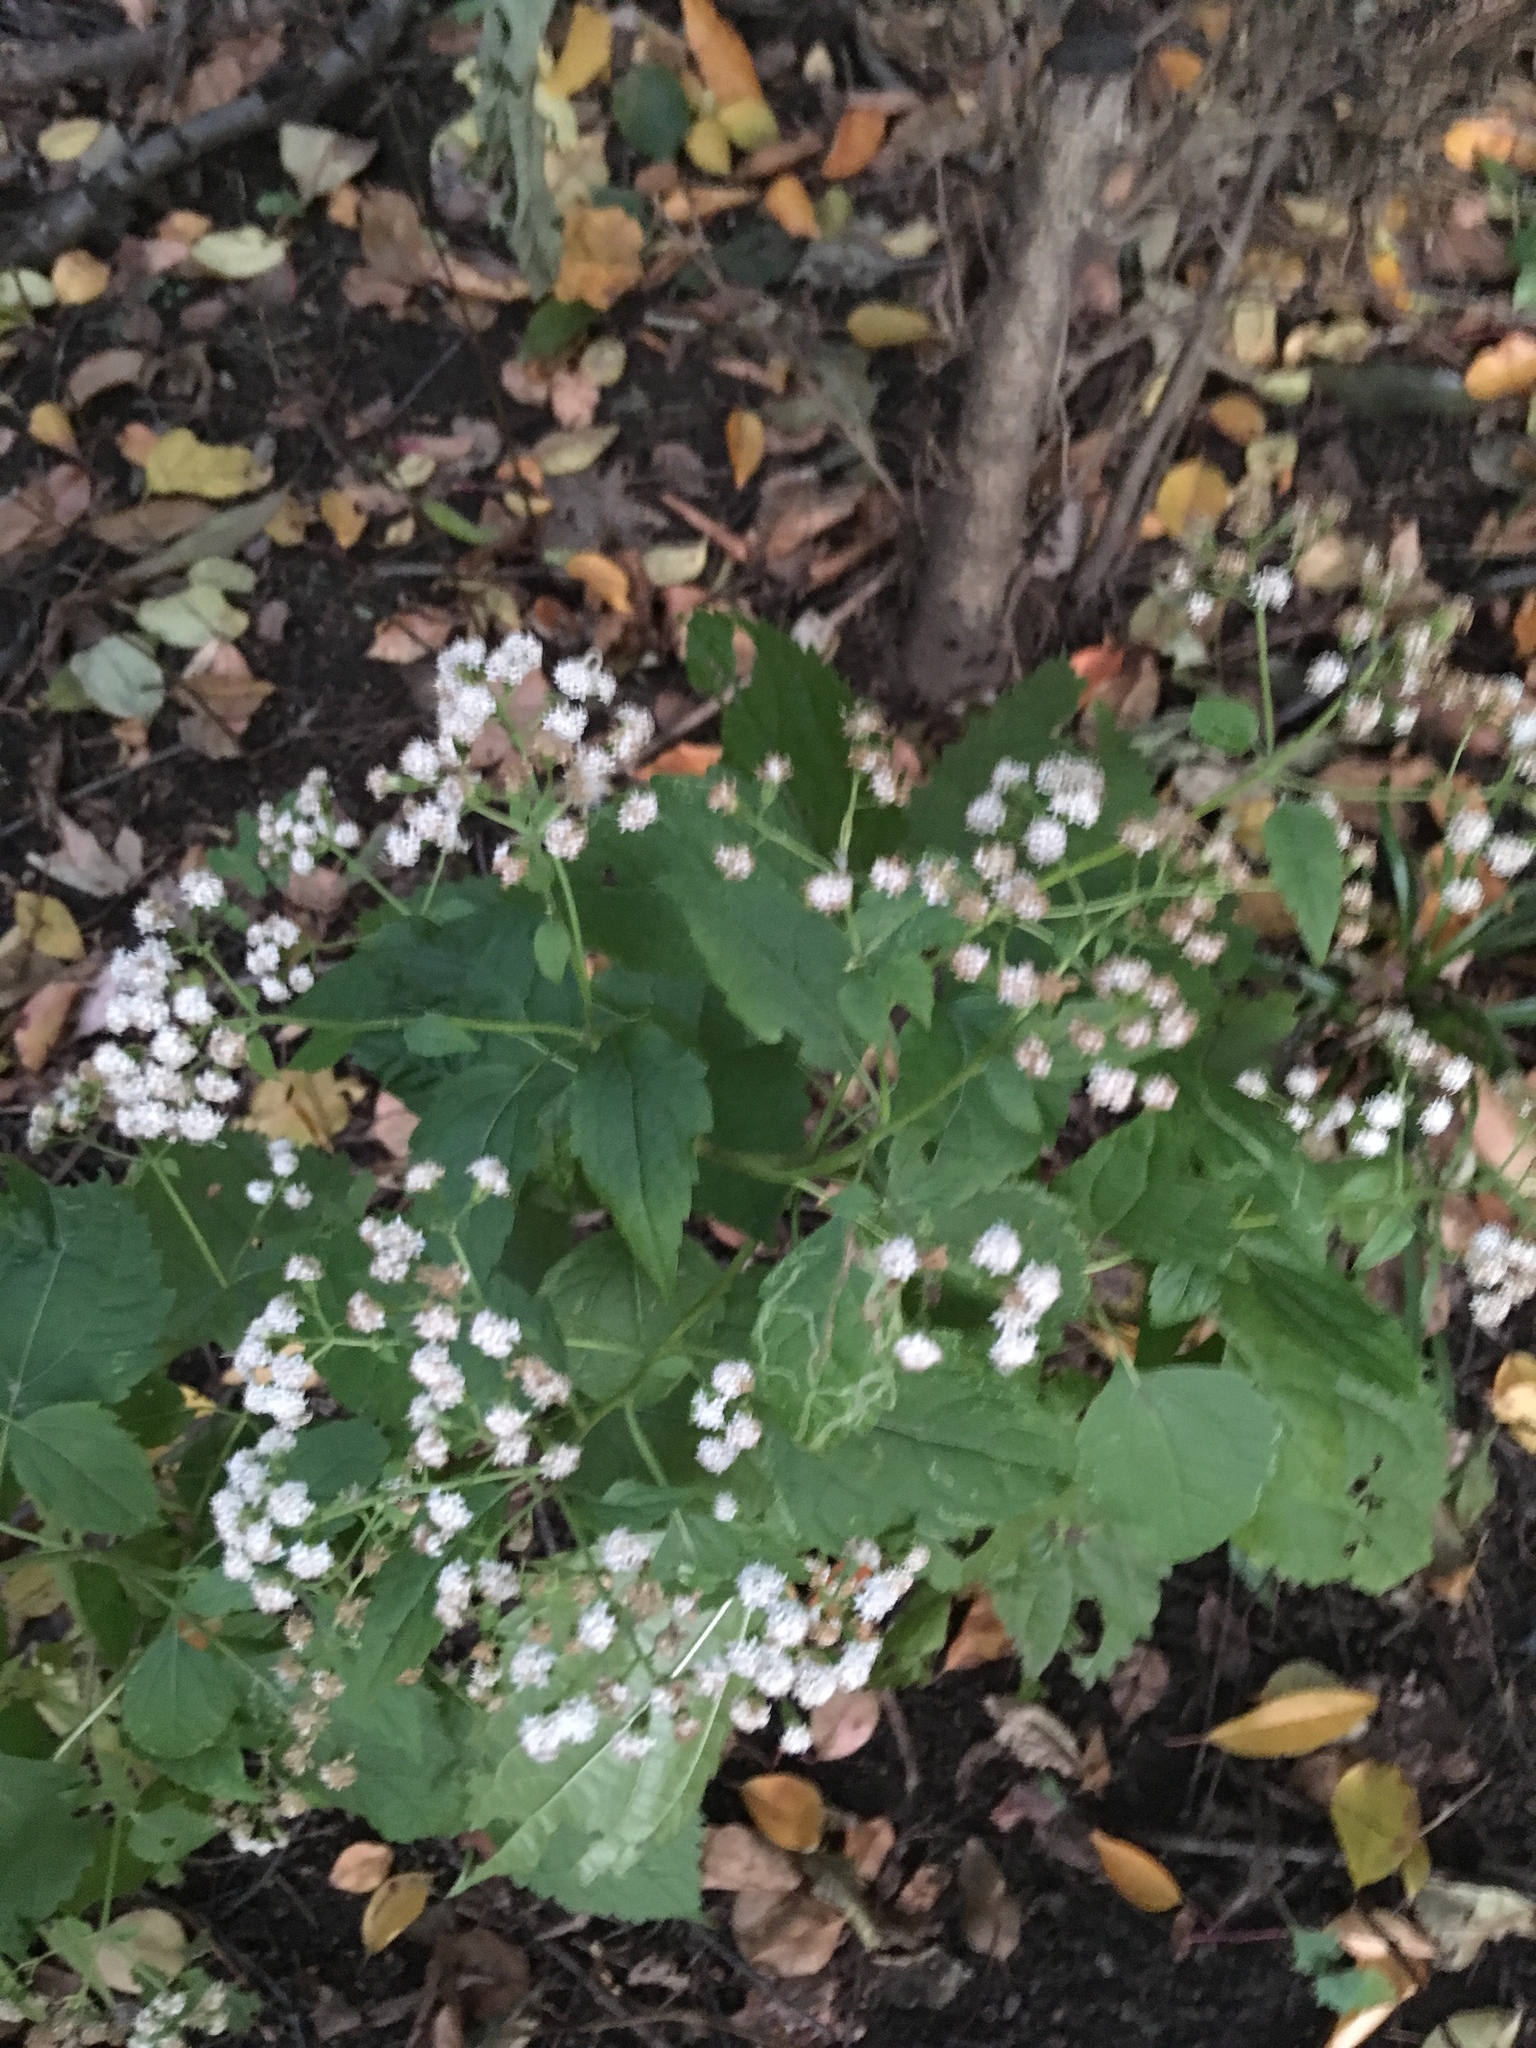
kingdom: Plantae
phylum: Tracheophyta
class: Magnoliopsida
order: Asterales
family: Asteraceae
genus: Ageratina
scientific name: Ageratina altissima
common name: White snakeroot
